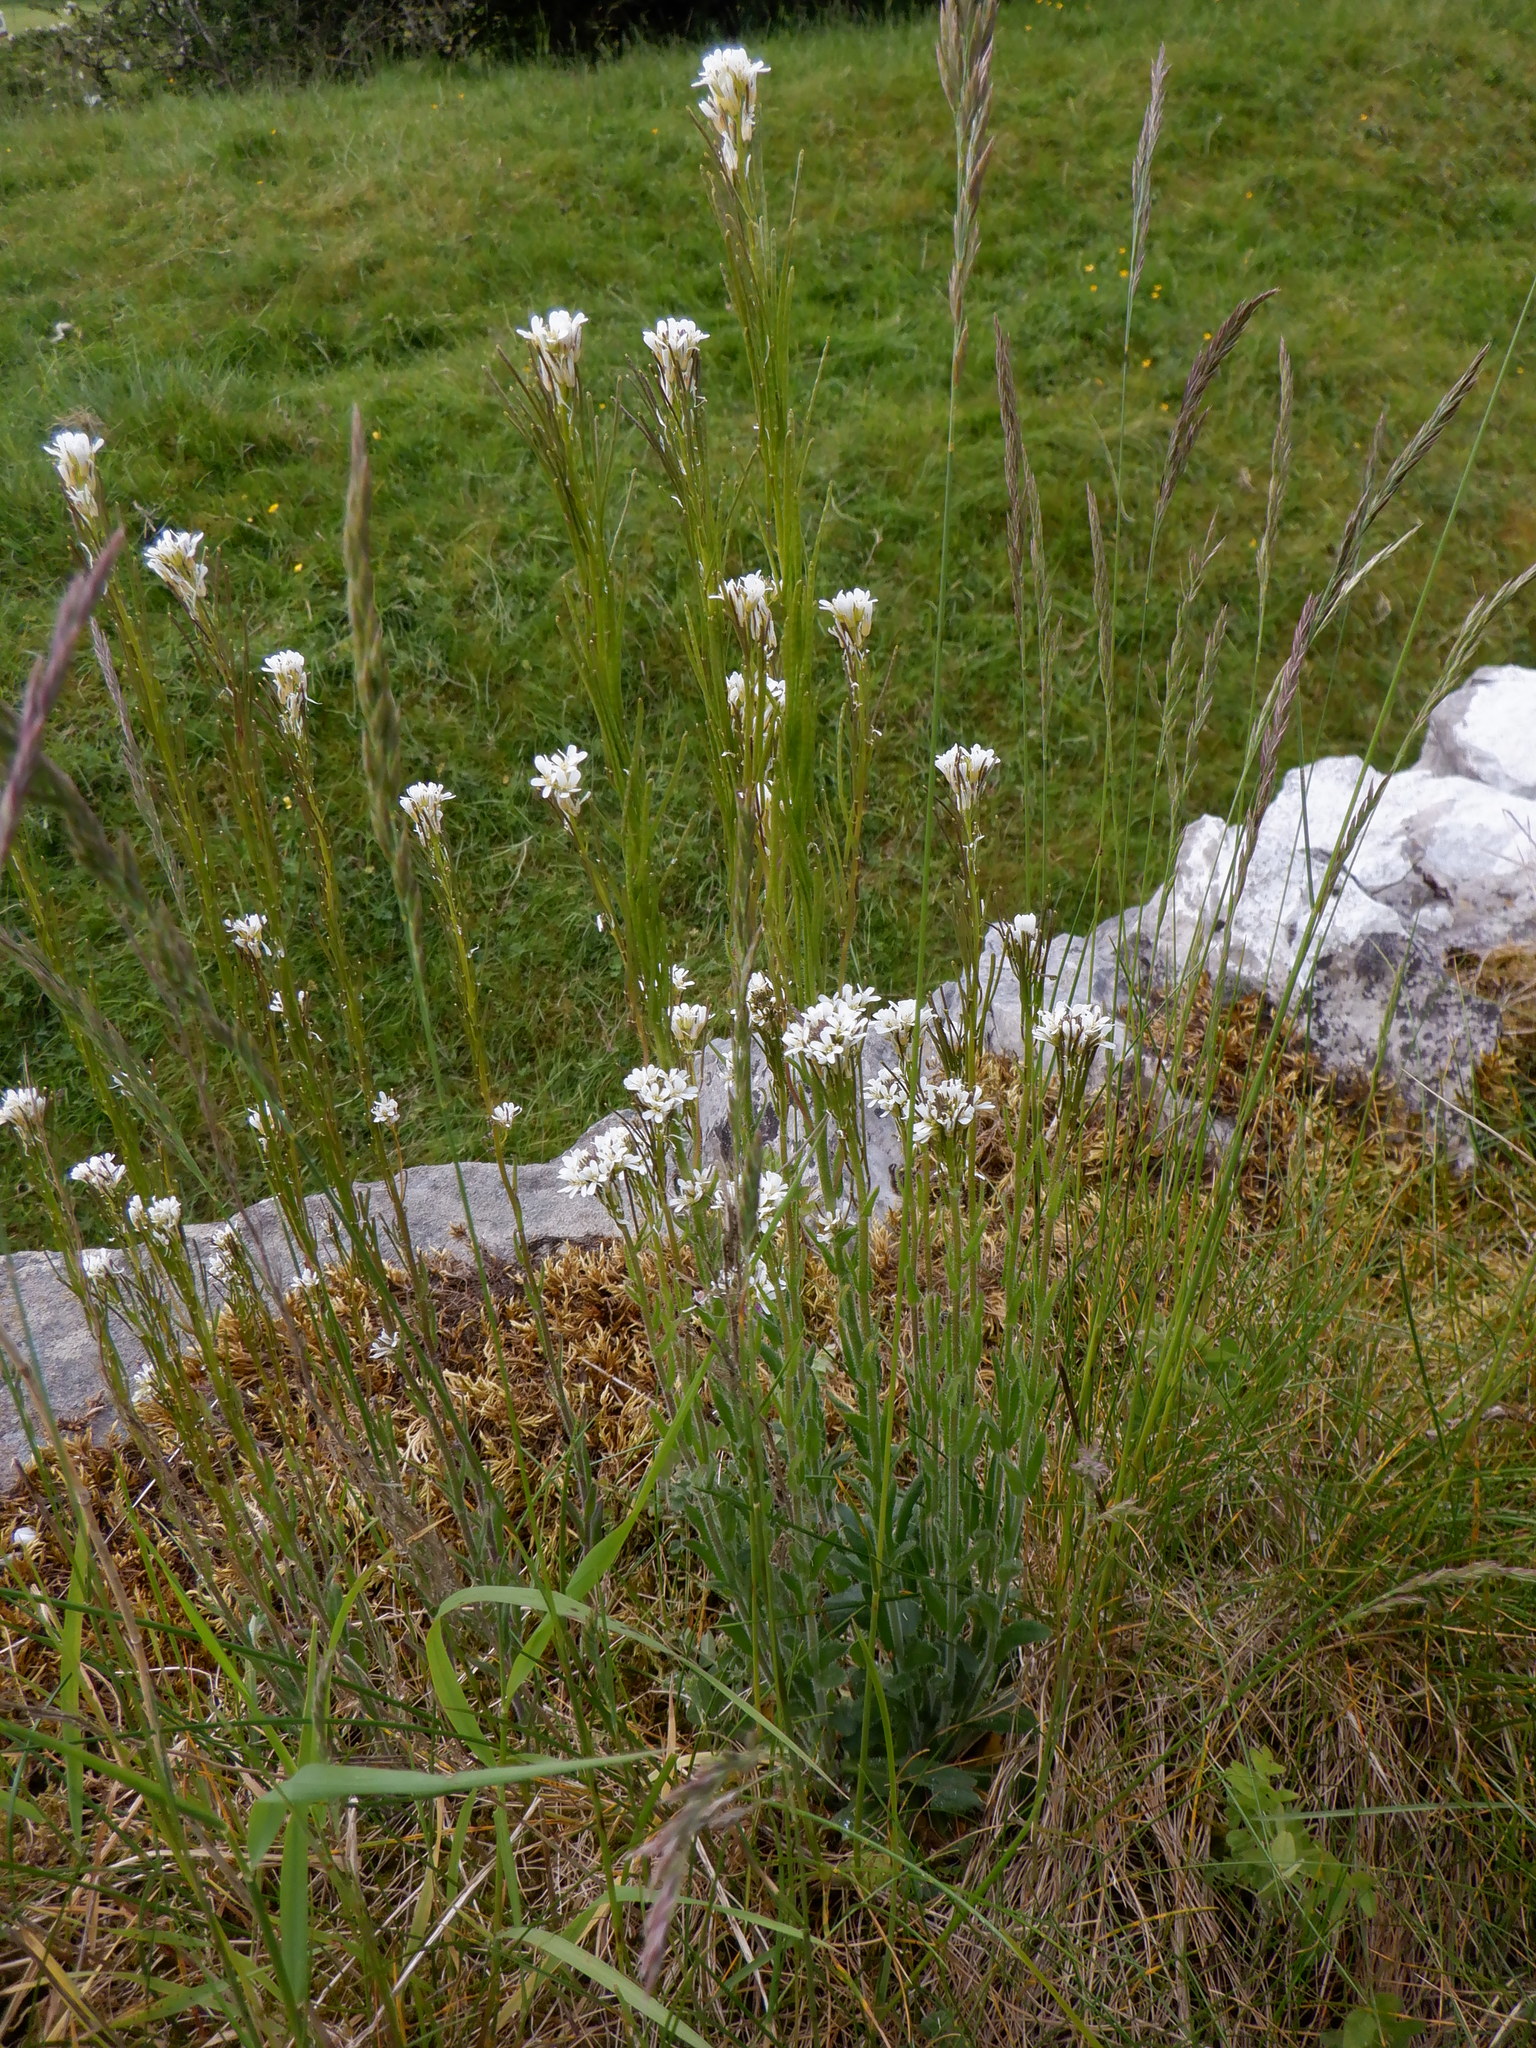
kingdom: Plantae
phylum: Tracheophyta
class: Magnoliopsida
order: Brassicales
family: Brassicaceae
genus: Arabis
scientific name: Arabis hirsuta
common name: Hairy rock-cress
